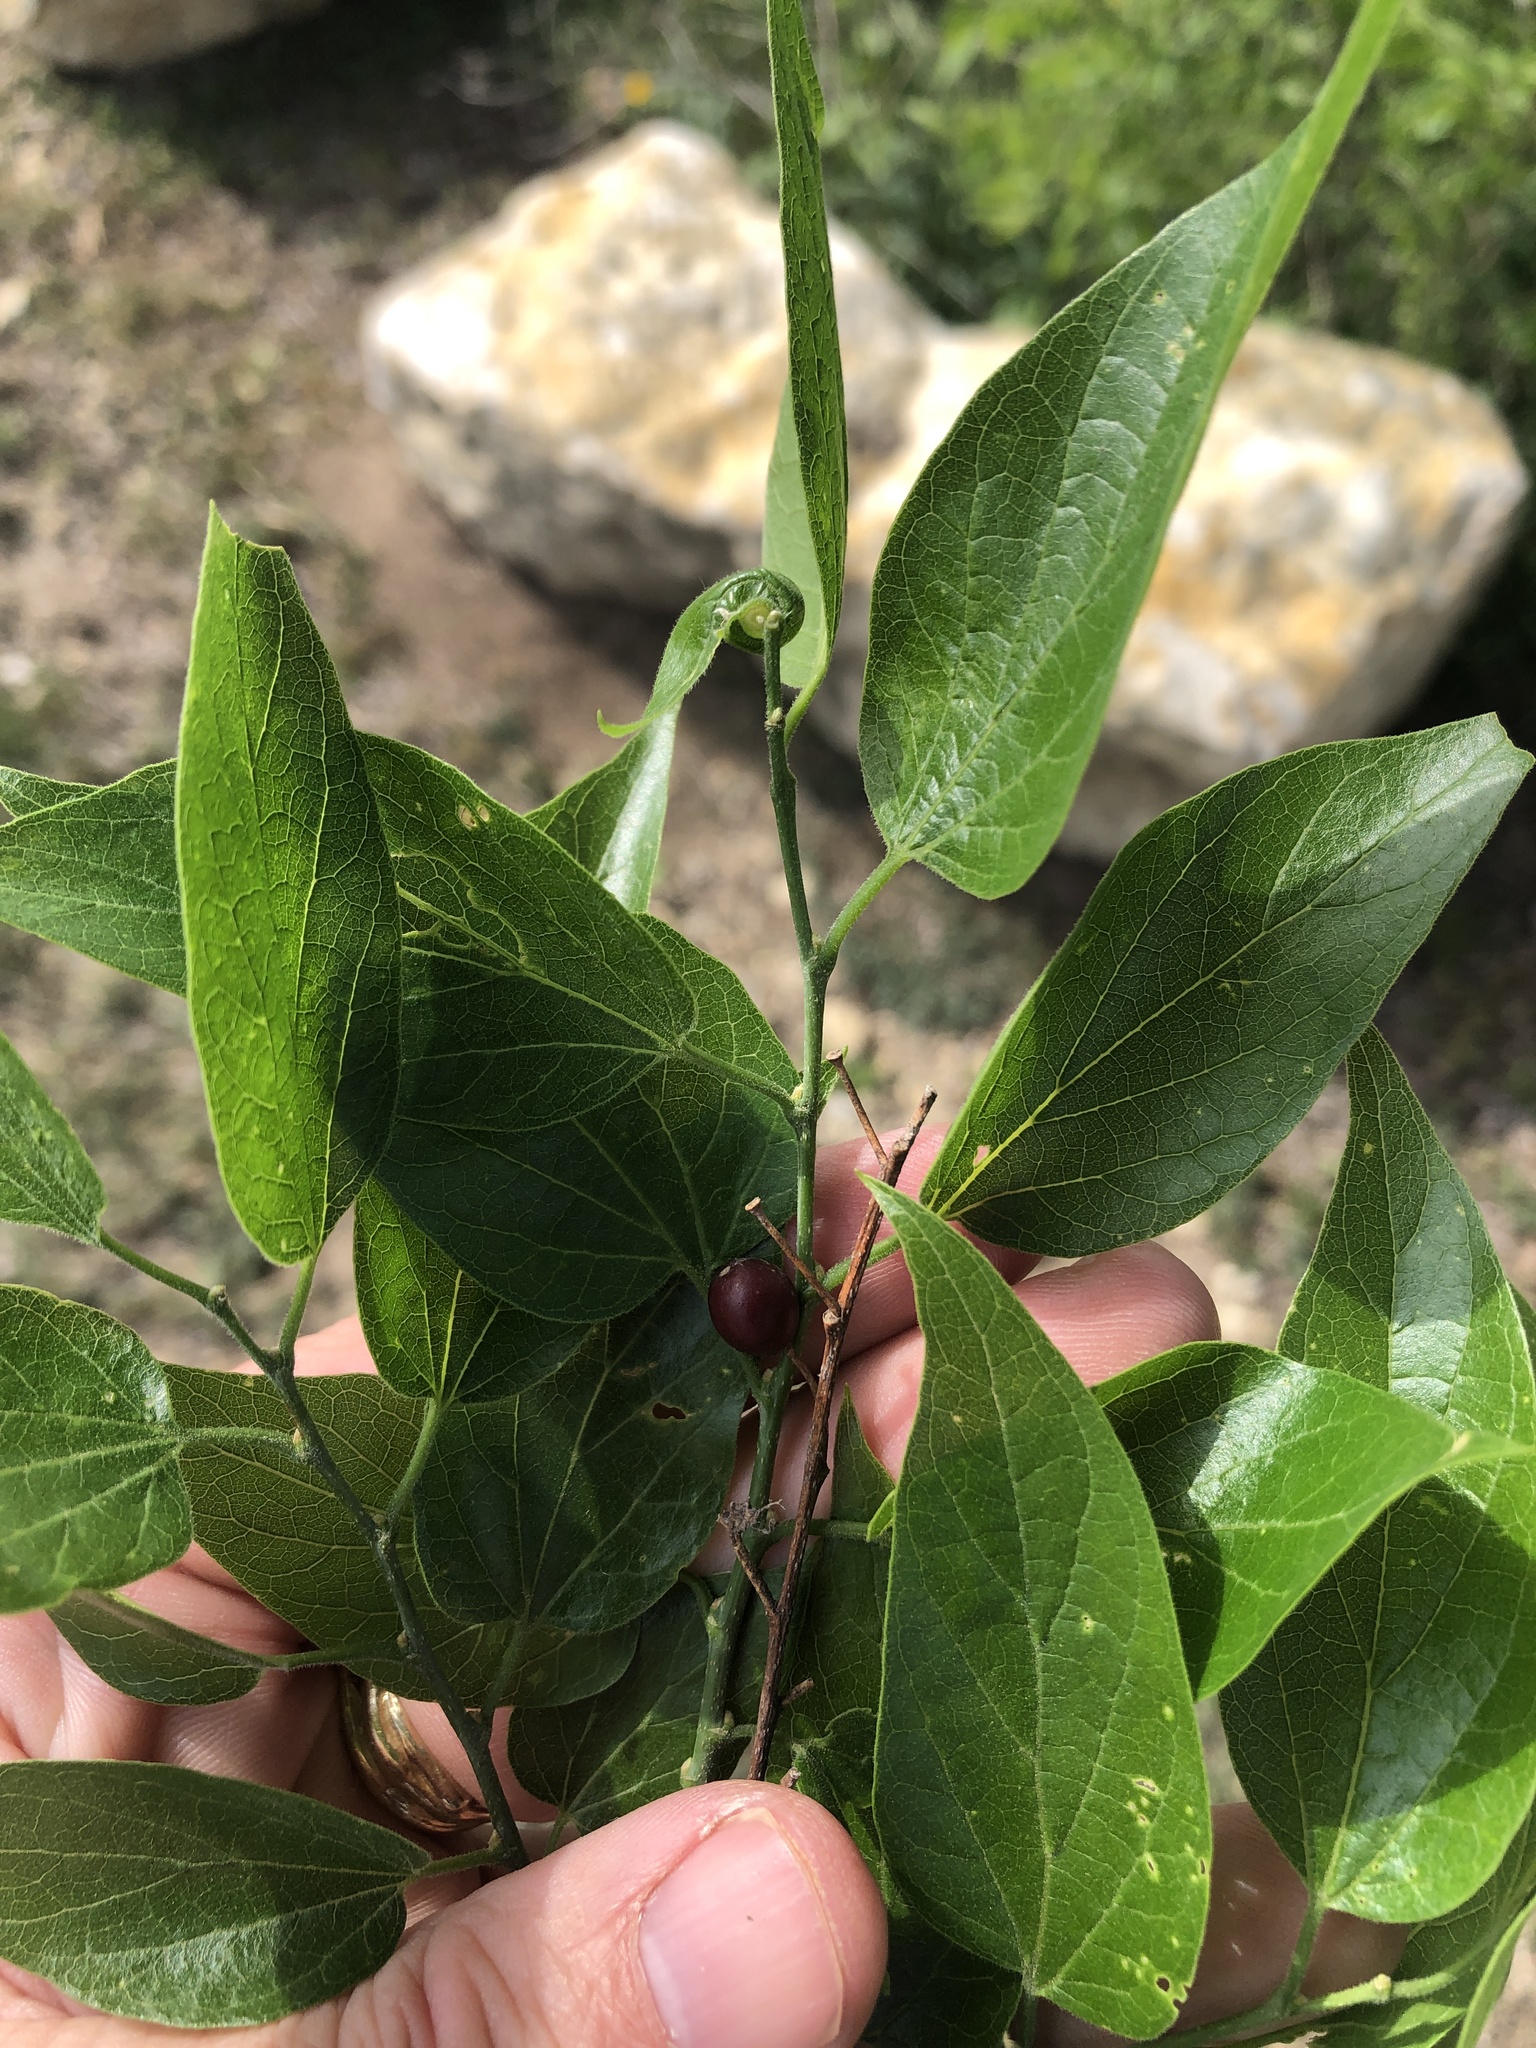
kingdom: Plantae
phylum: Tracheophyta
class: Magnoliopsida
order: Rosales
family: Cannabaceae
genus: Celtis
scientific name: Celtis laevigata
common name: Sugarberry
